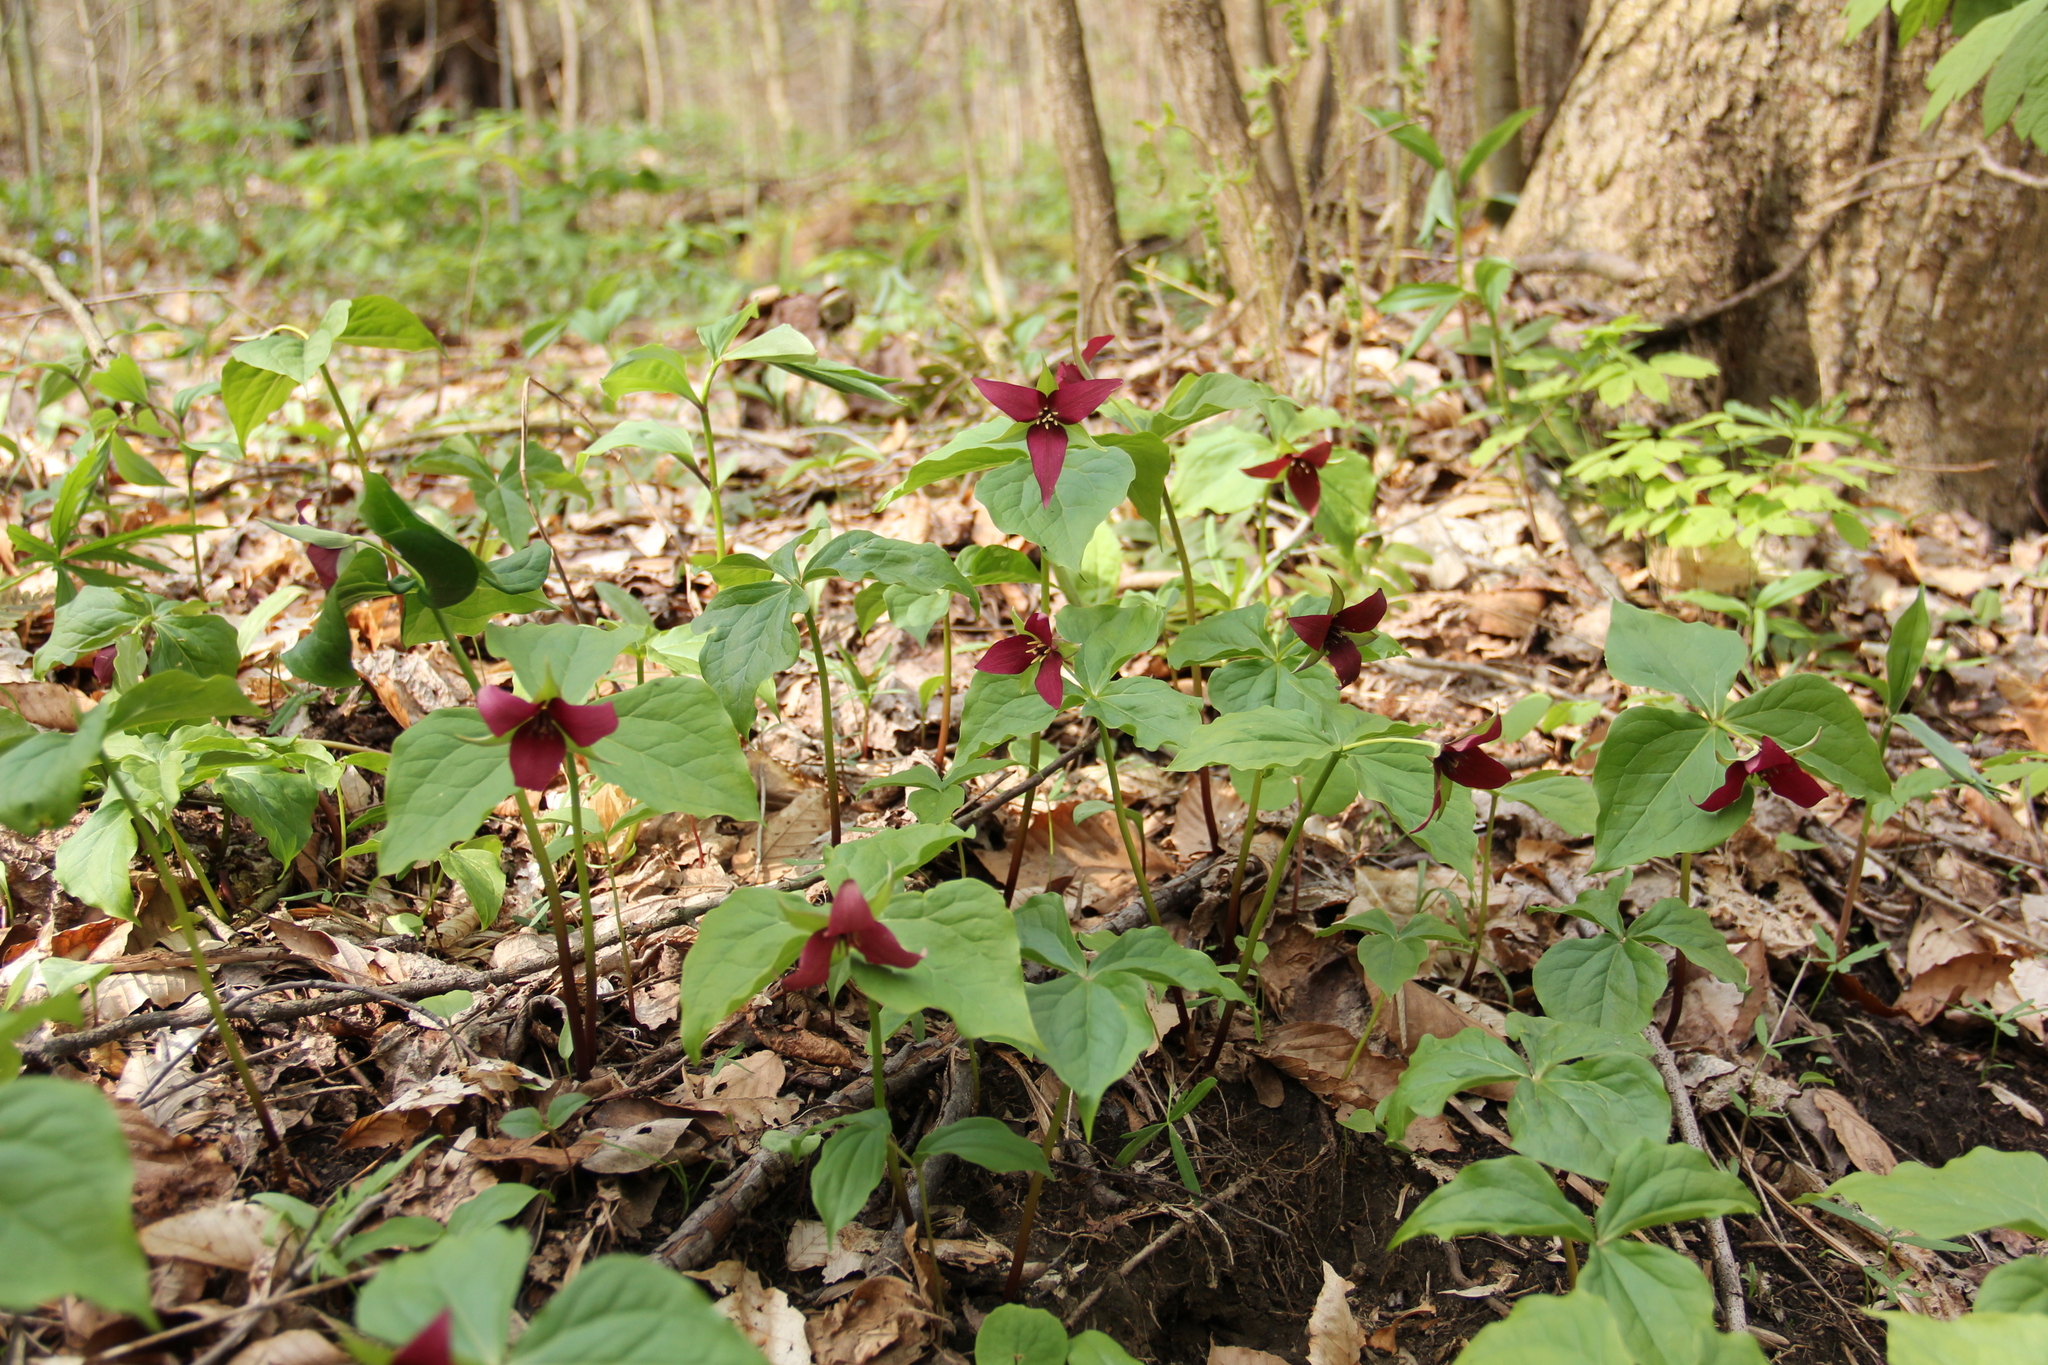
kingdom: Plantae
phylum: Tracheophyta
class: Liliopsida
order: Liliales
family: Melanthiaceae
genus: Trillium
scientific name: Trillium erectum
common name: Purple trillium
